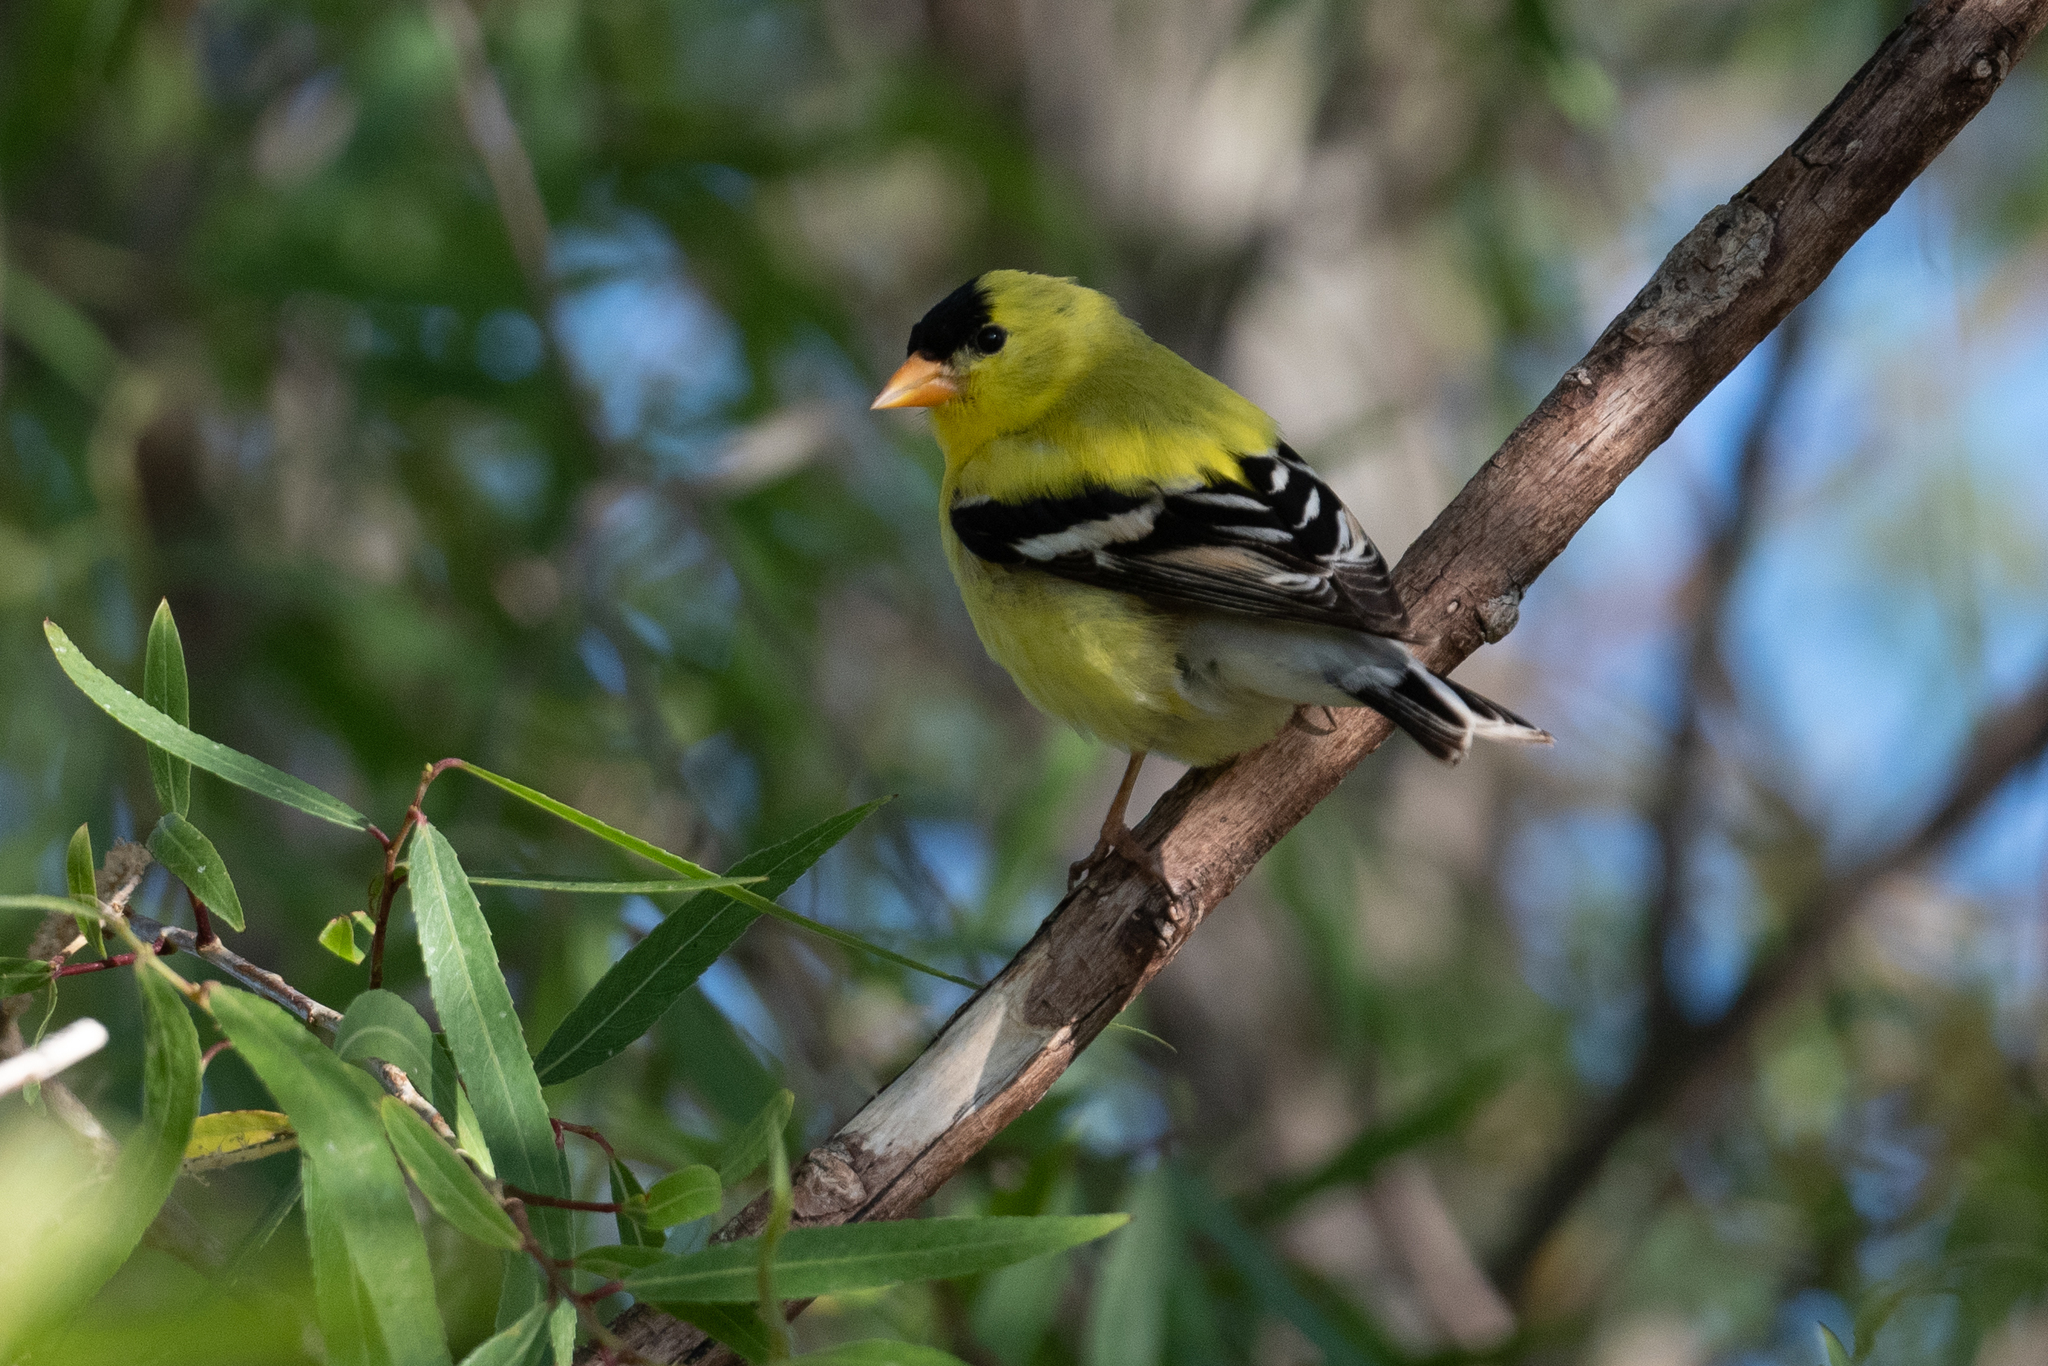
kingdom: Animalia
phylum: Chordata
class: Aves
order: Passeriformes
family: Fringillidae
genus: Spinus
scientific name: Spinus tristis
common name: American goldfinch
